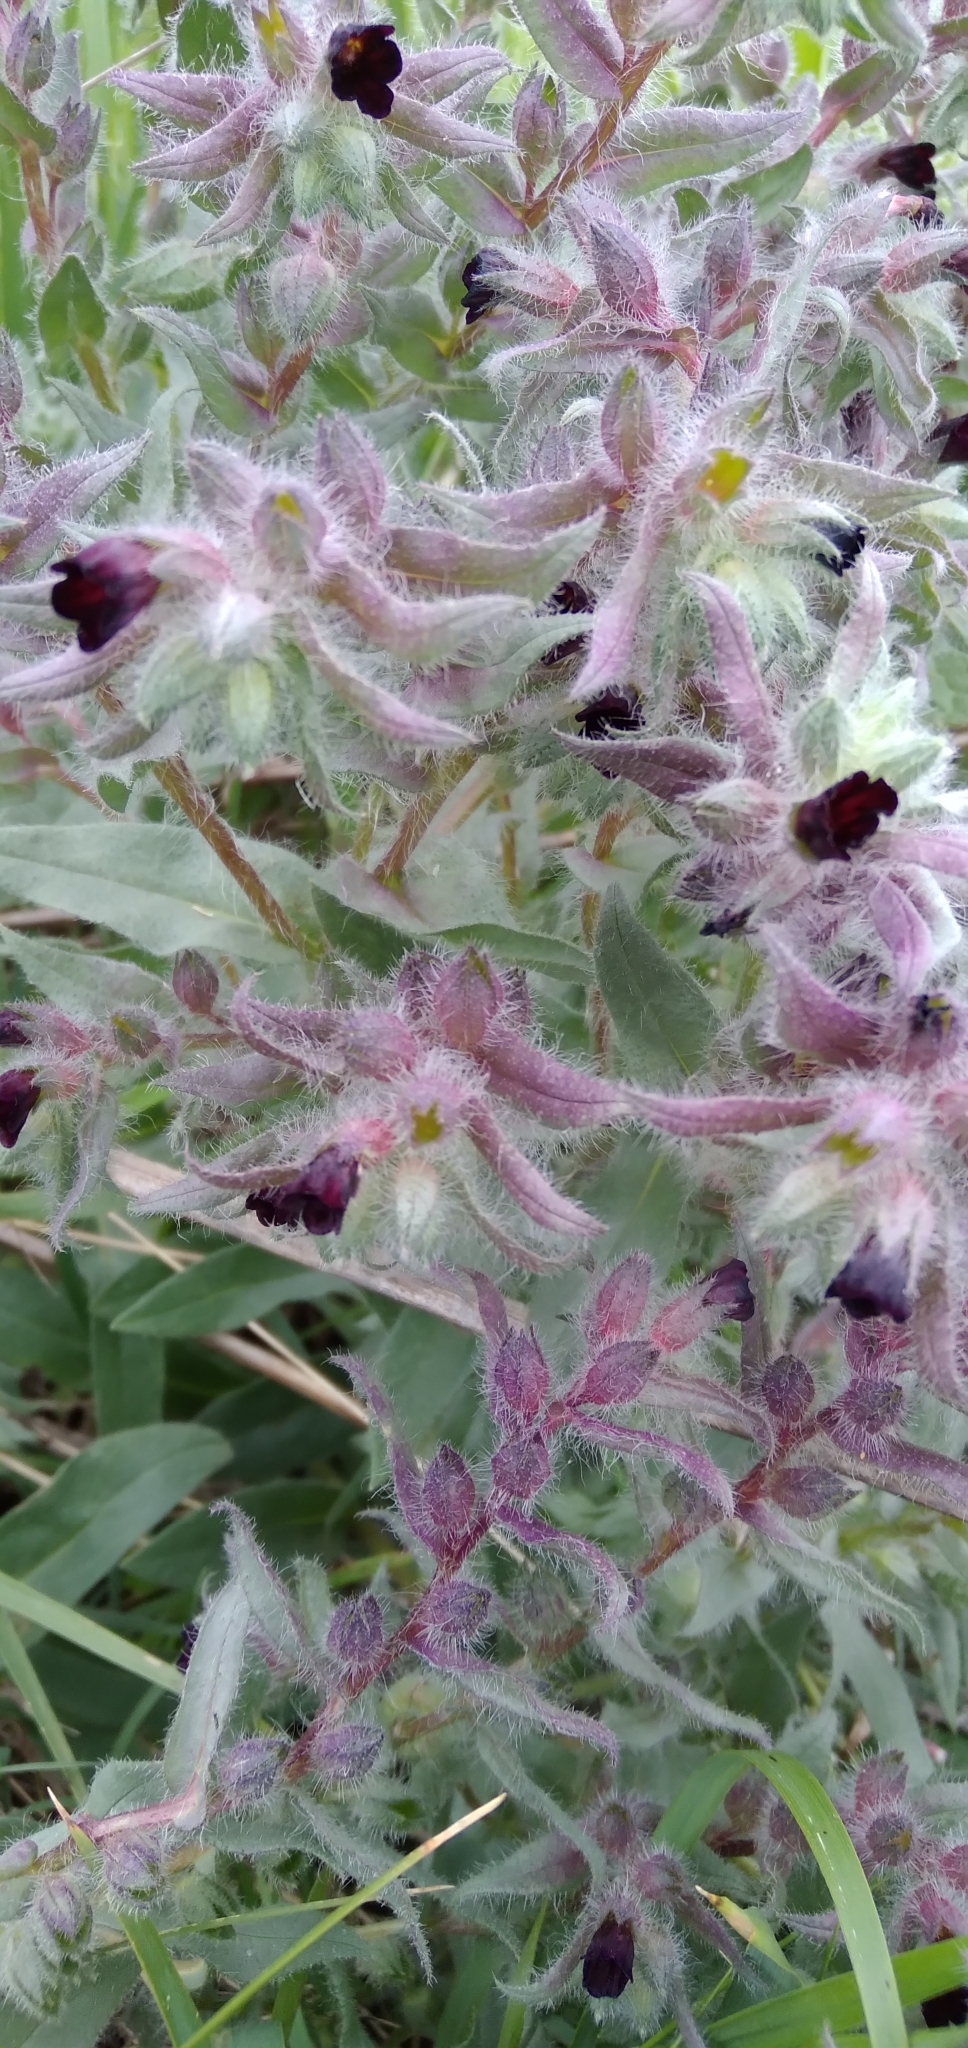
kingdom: Plantae
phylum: Tracheophyta
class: Magnoliopsida
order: Boraginales
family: Boraginaceae
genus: Nonea
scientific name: Nonea pulla
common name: Brown nonea
